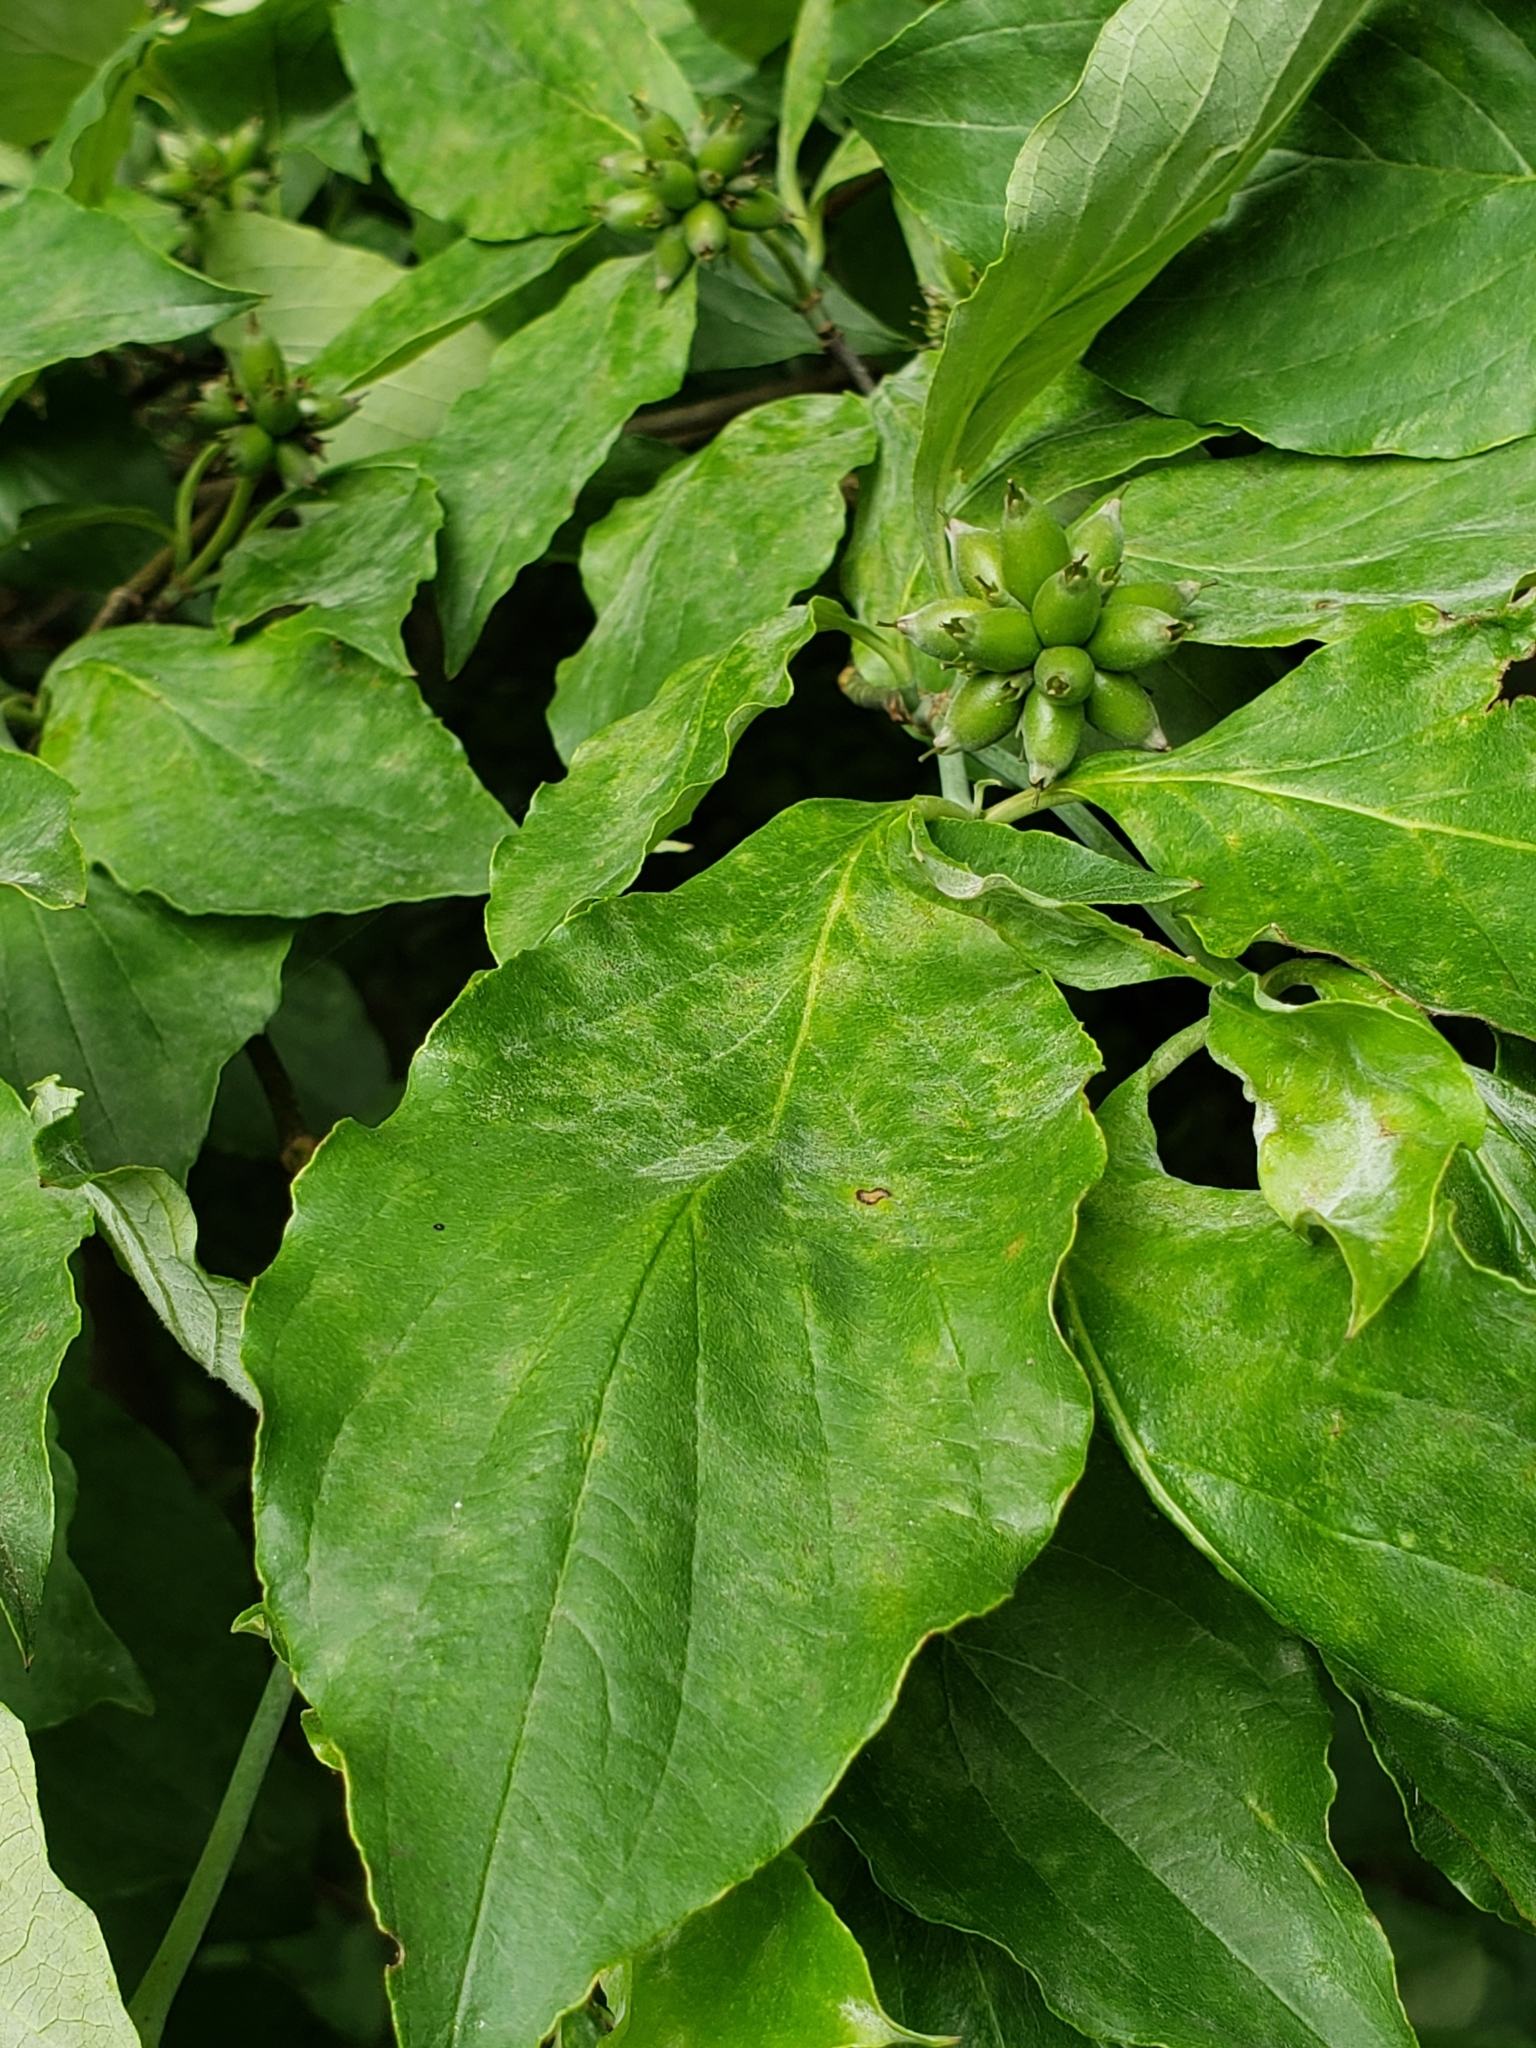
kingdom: Plantae
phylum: Tracheophyta
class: Magnoliopsida
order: Cornales
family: Cornaceae
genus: Cornus
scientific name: Cornus florida
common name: Flowering dogwood
